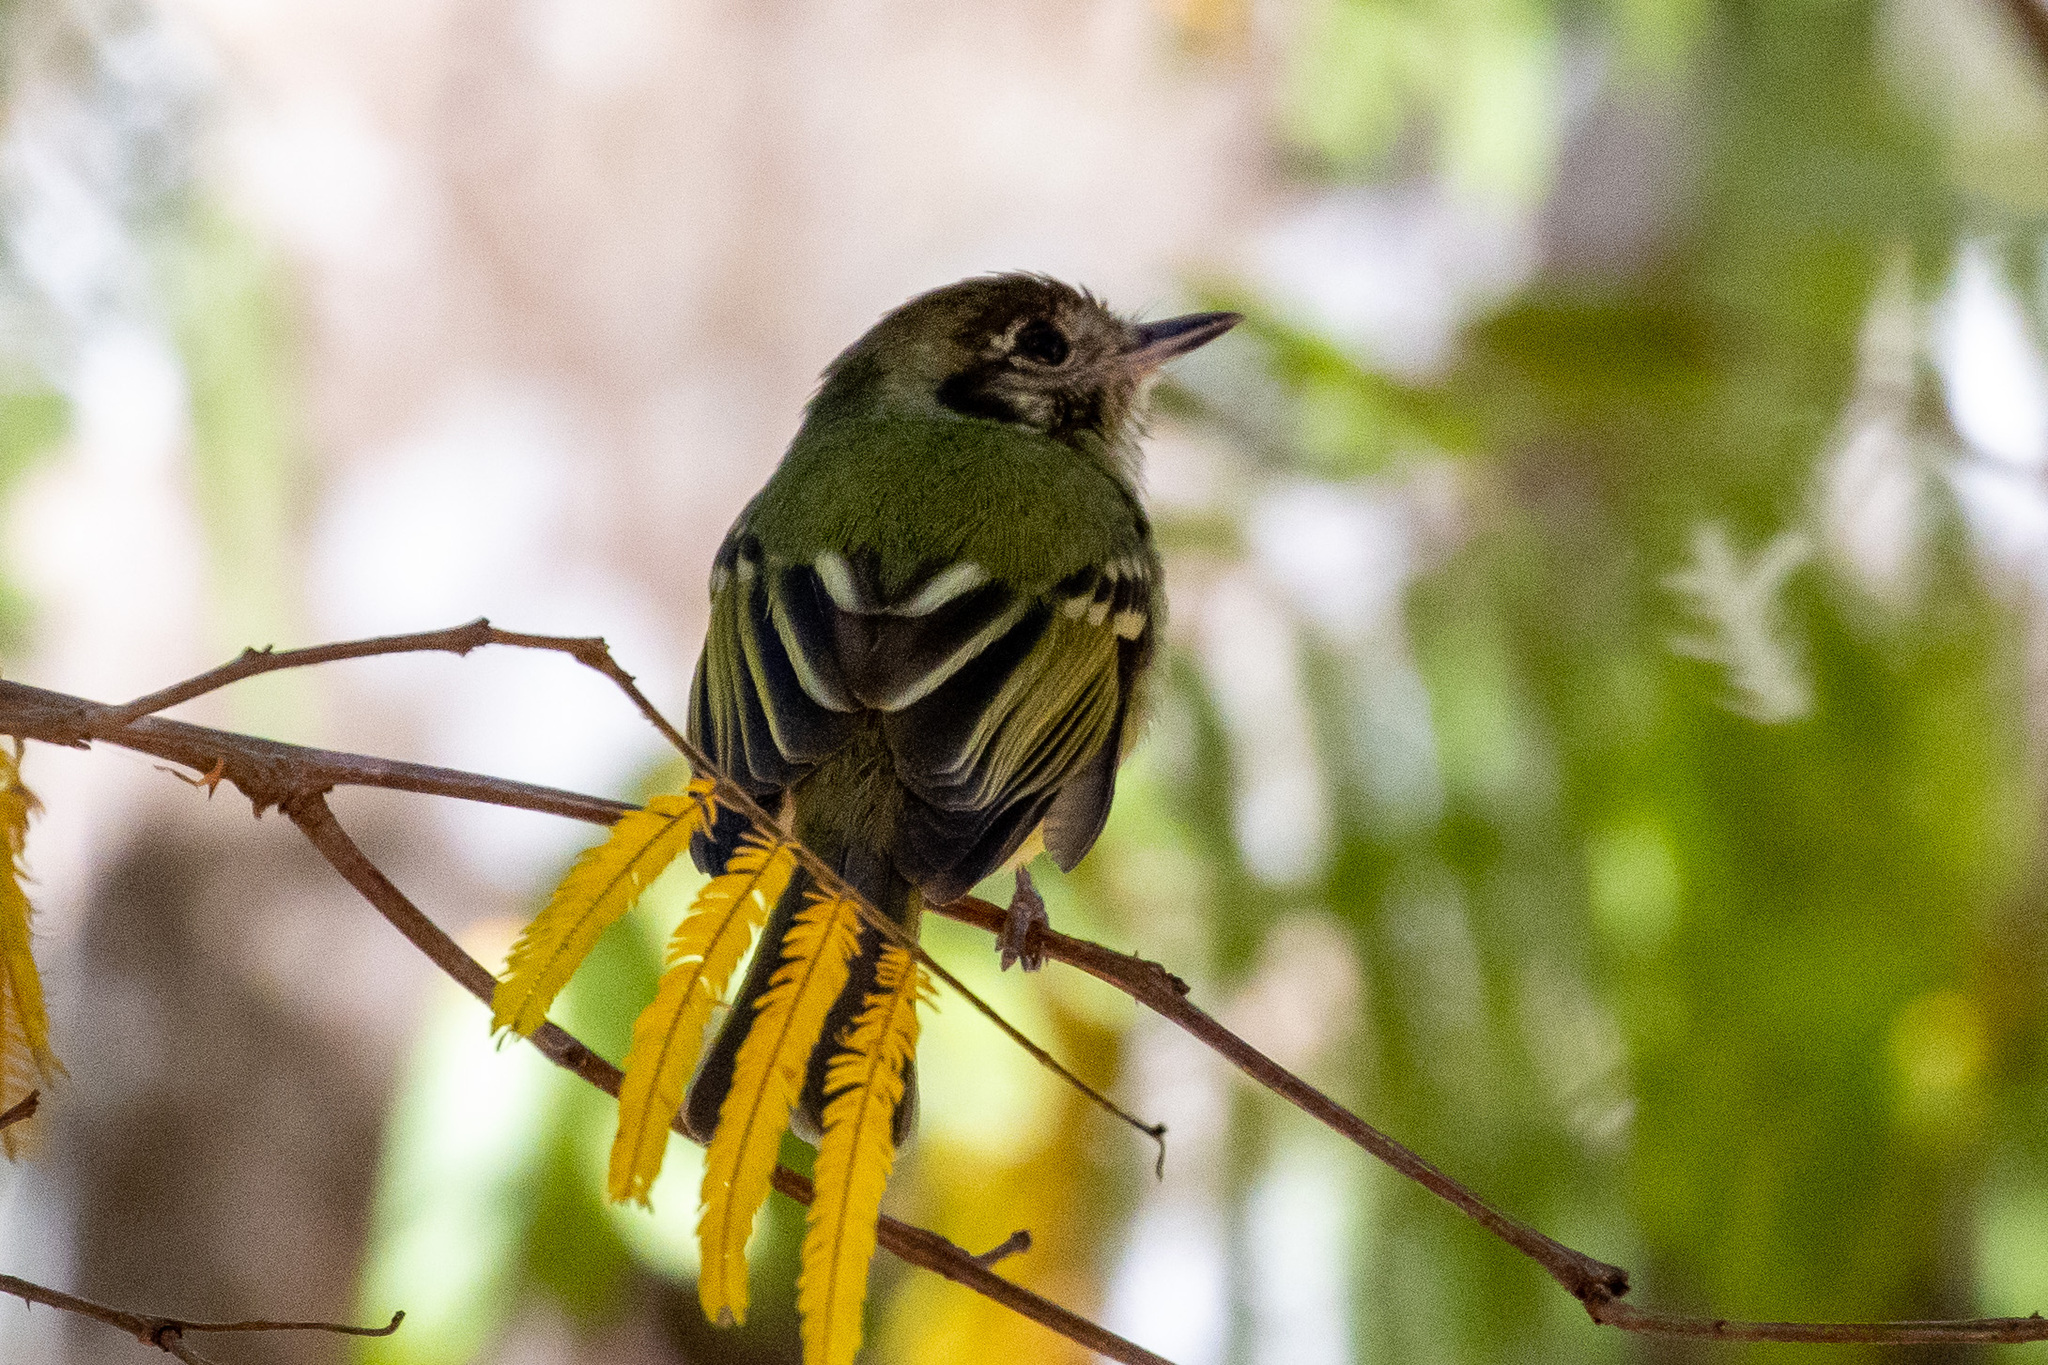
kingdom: Animalia
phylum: Chordata
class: Aves
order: Passeriformes
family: Tyrannidae
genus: Leptopogon
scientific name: Leptopogon amaurocephalus
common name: Sepia-capped flycatcher
